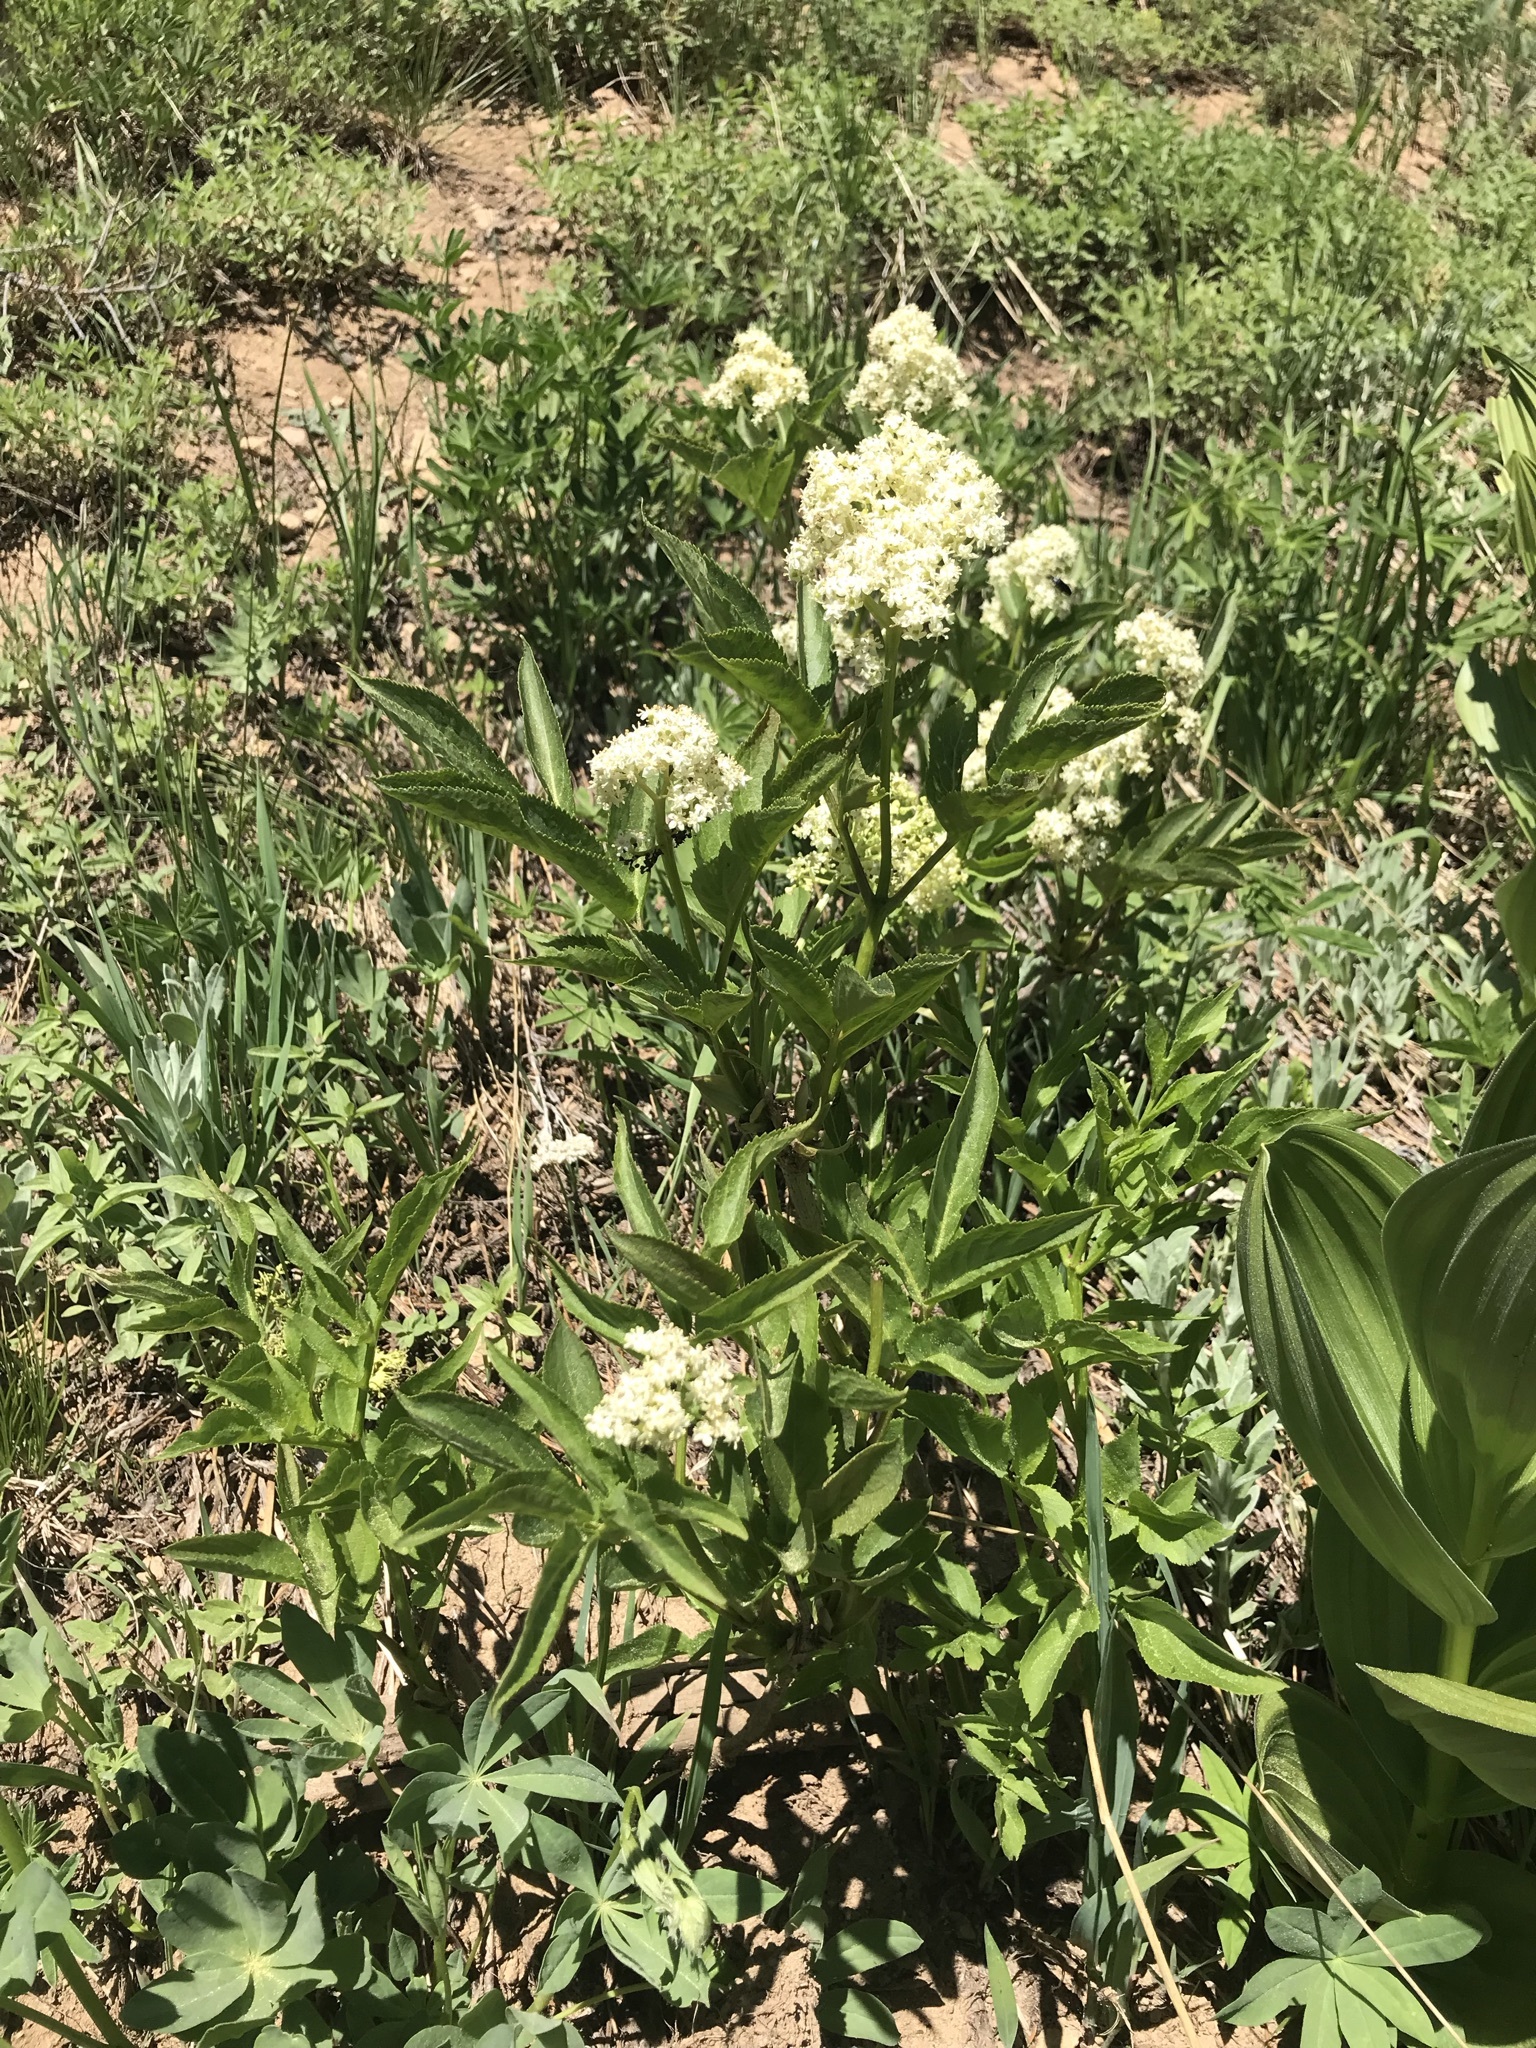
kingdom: Plantae
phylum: Tracheophyta
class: Magnoliopsida
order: Dipsacales
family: Viburnaceae
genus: Sambucus
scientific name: Sambucus racemosa
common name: Red-berried elder
